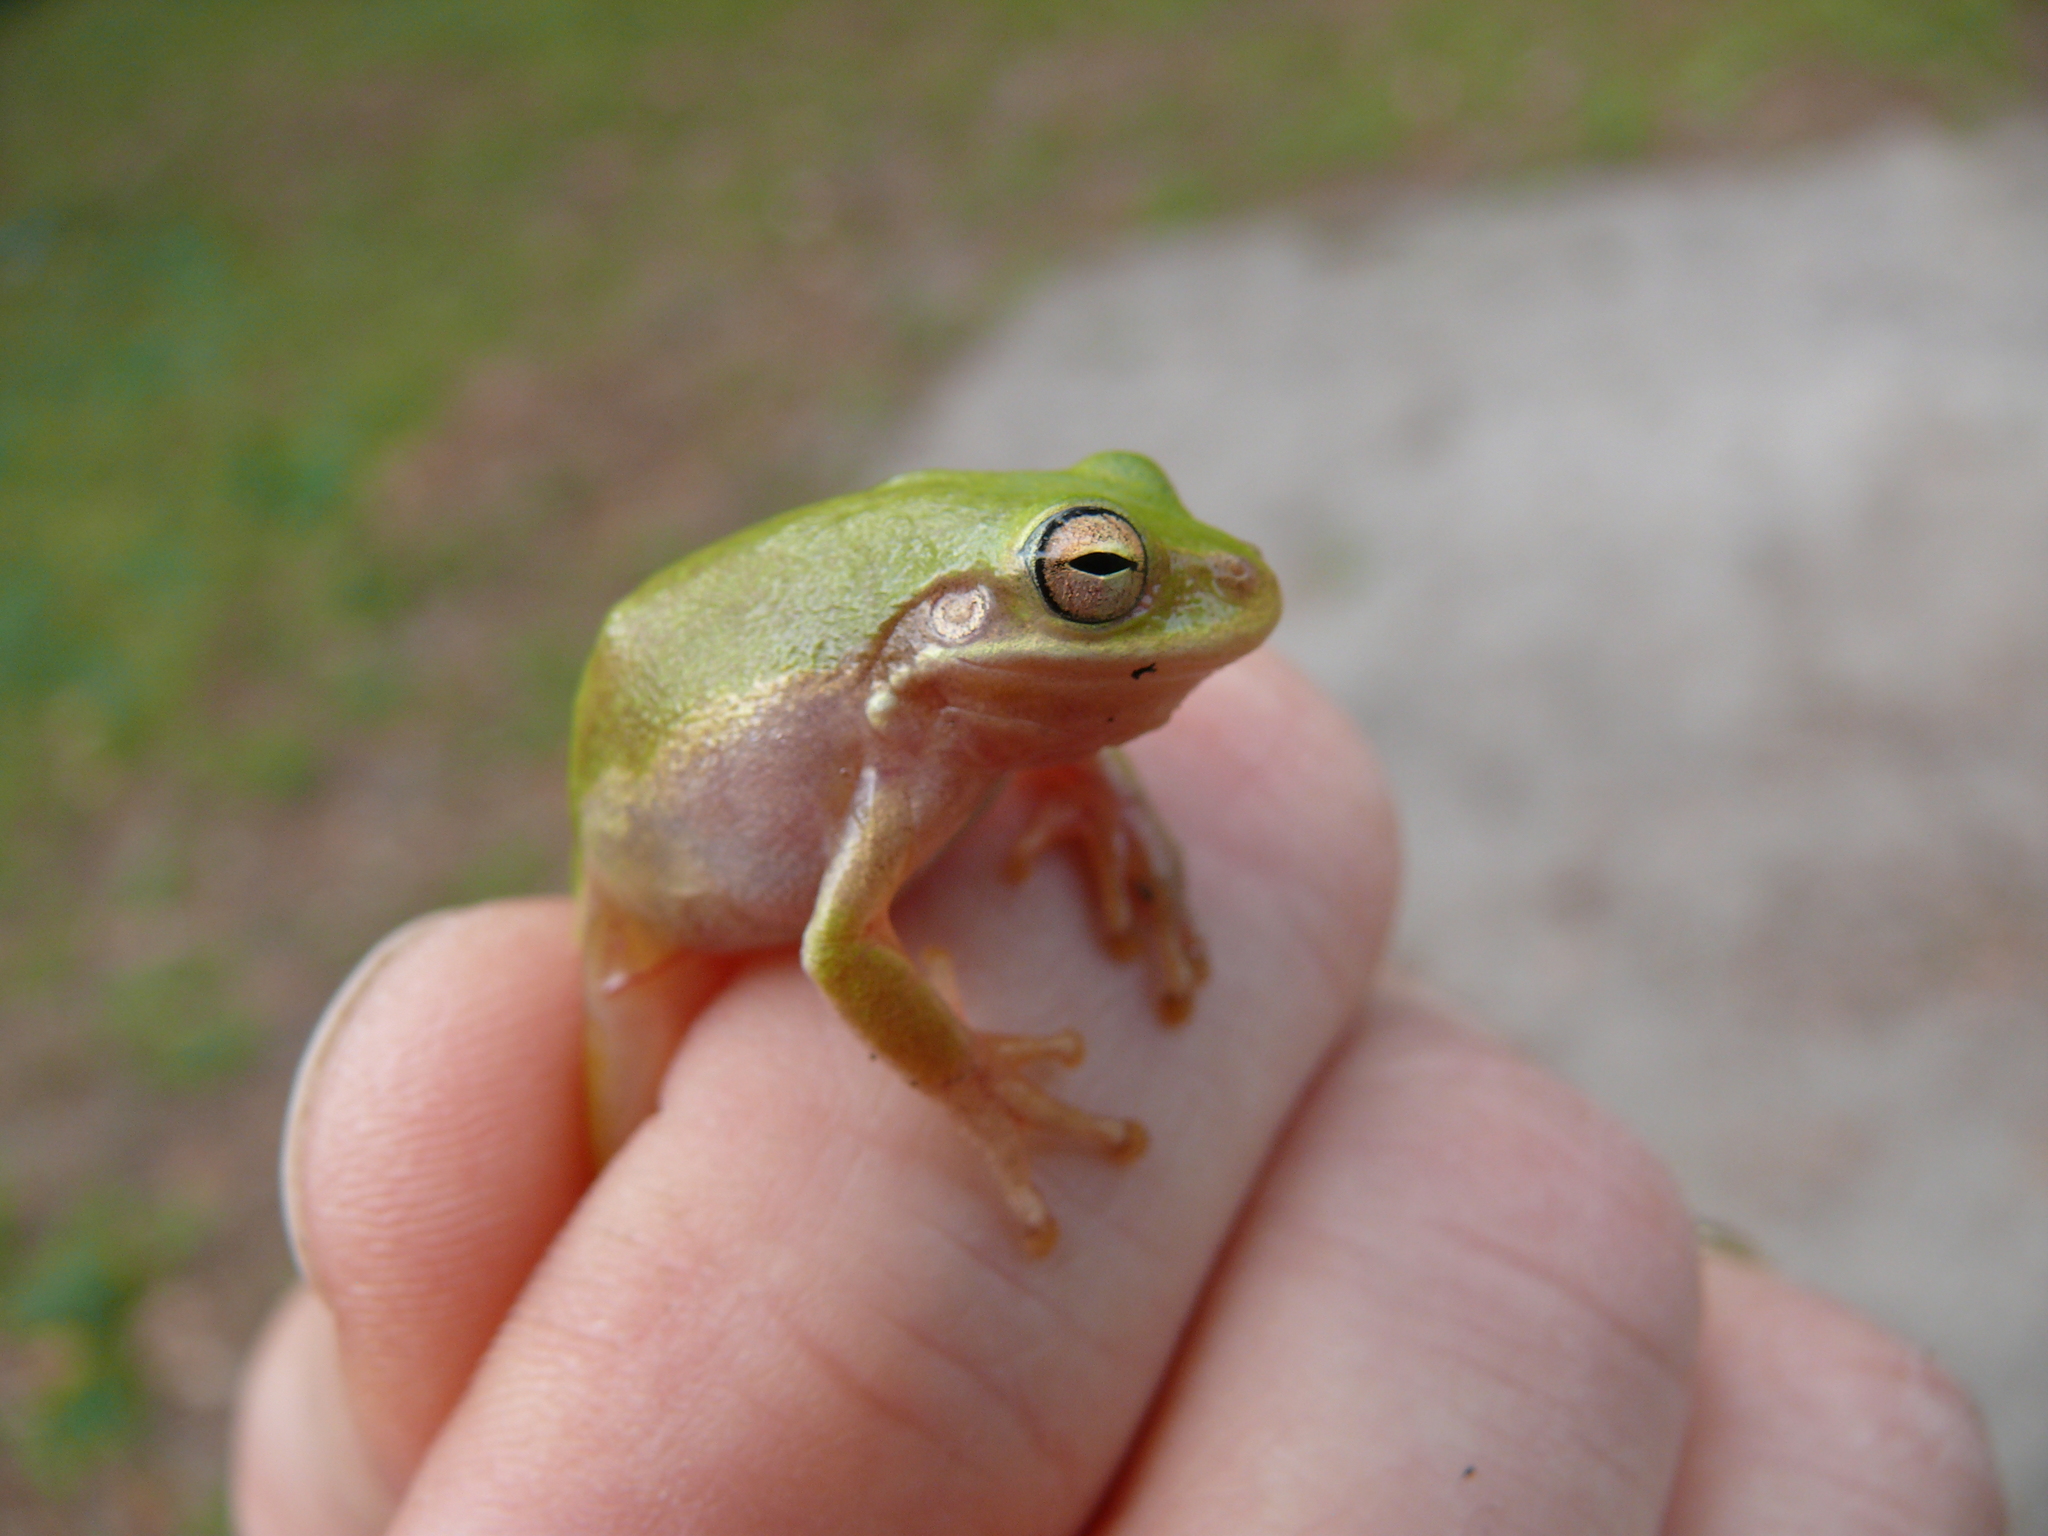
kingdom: Animalia
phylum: Chordata
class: Amphibia
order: Anura
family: Hylidae
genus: Dryophytes
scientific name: Dryophytes squirellus
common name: Squirrel treefrog
